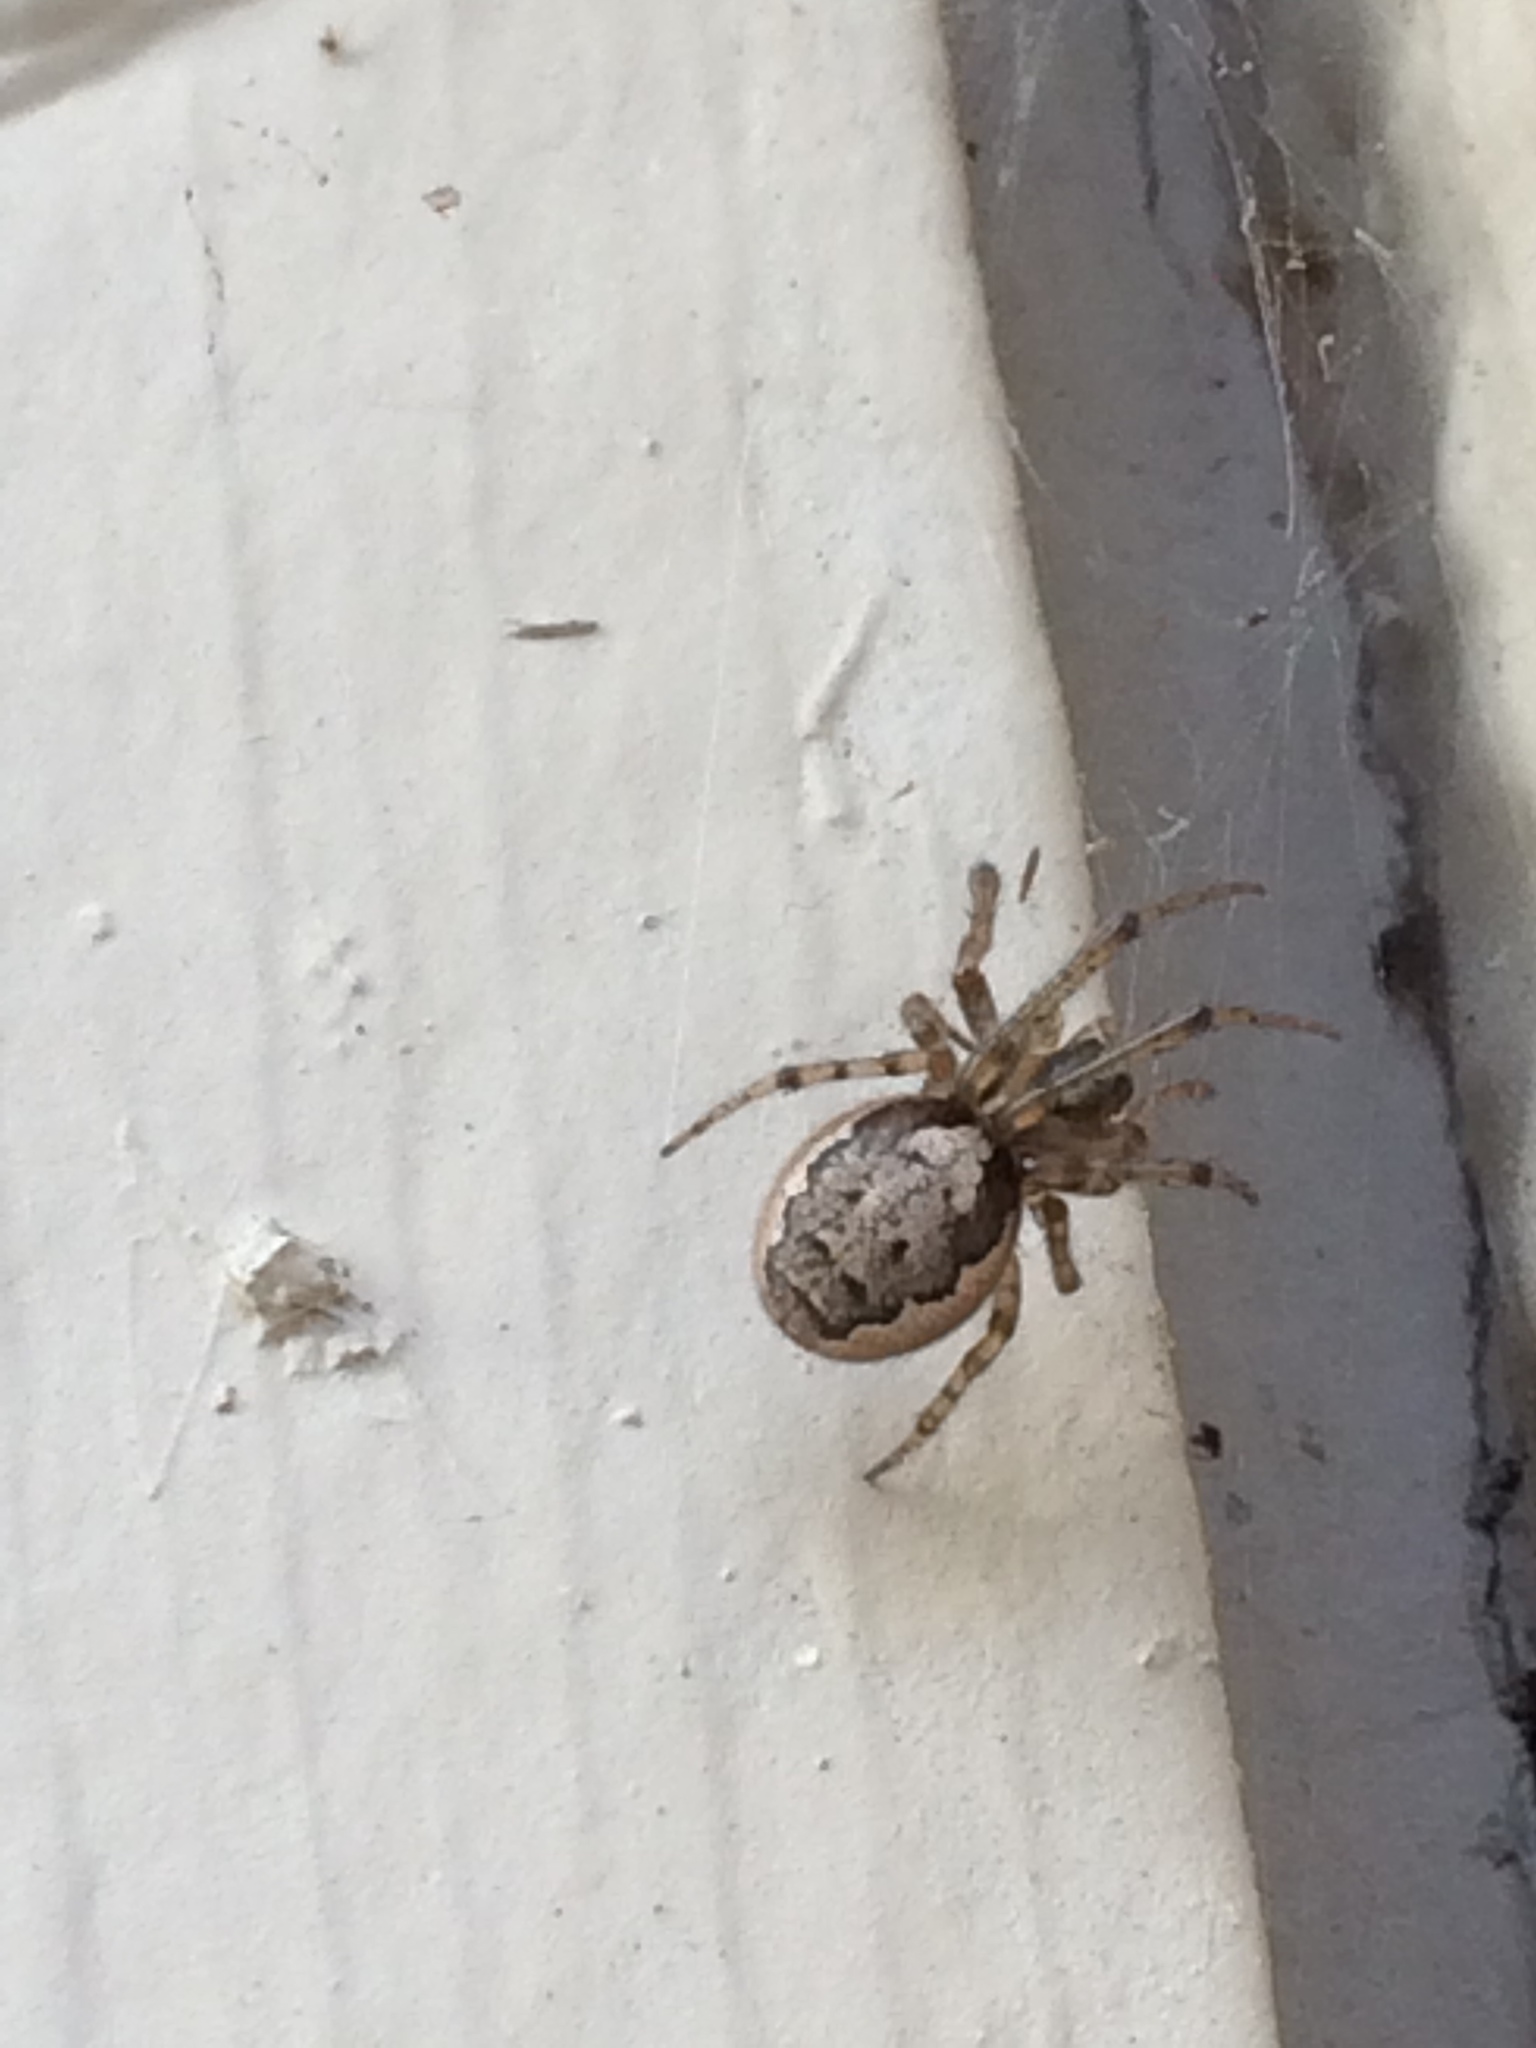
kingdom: Animalia
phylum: Arthropoda
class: Arachnida
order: Araneae
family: Araneidae
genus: Zygiella
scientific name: Zygiella x-notata
